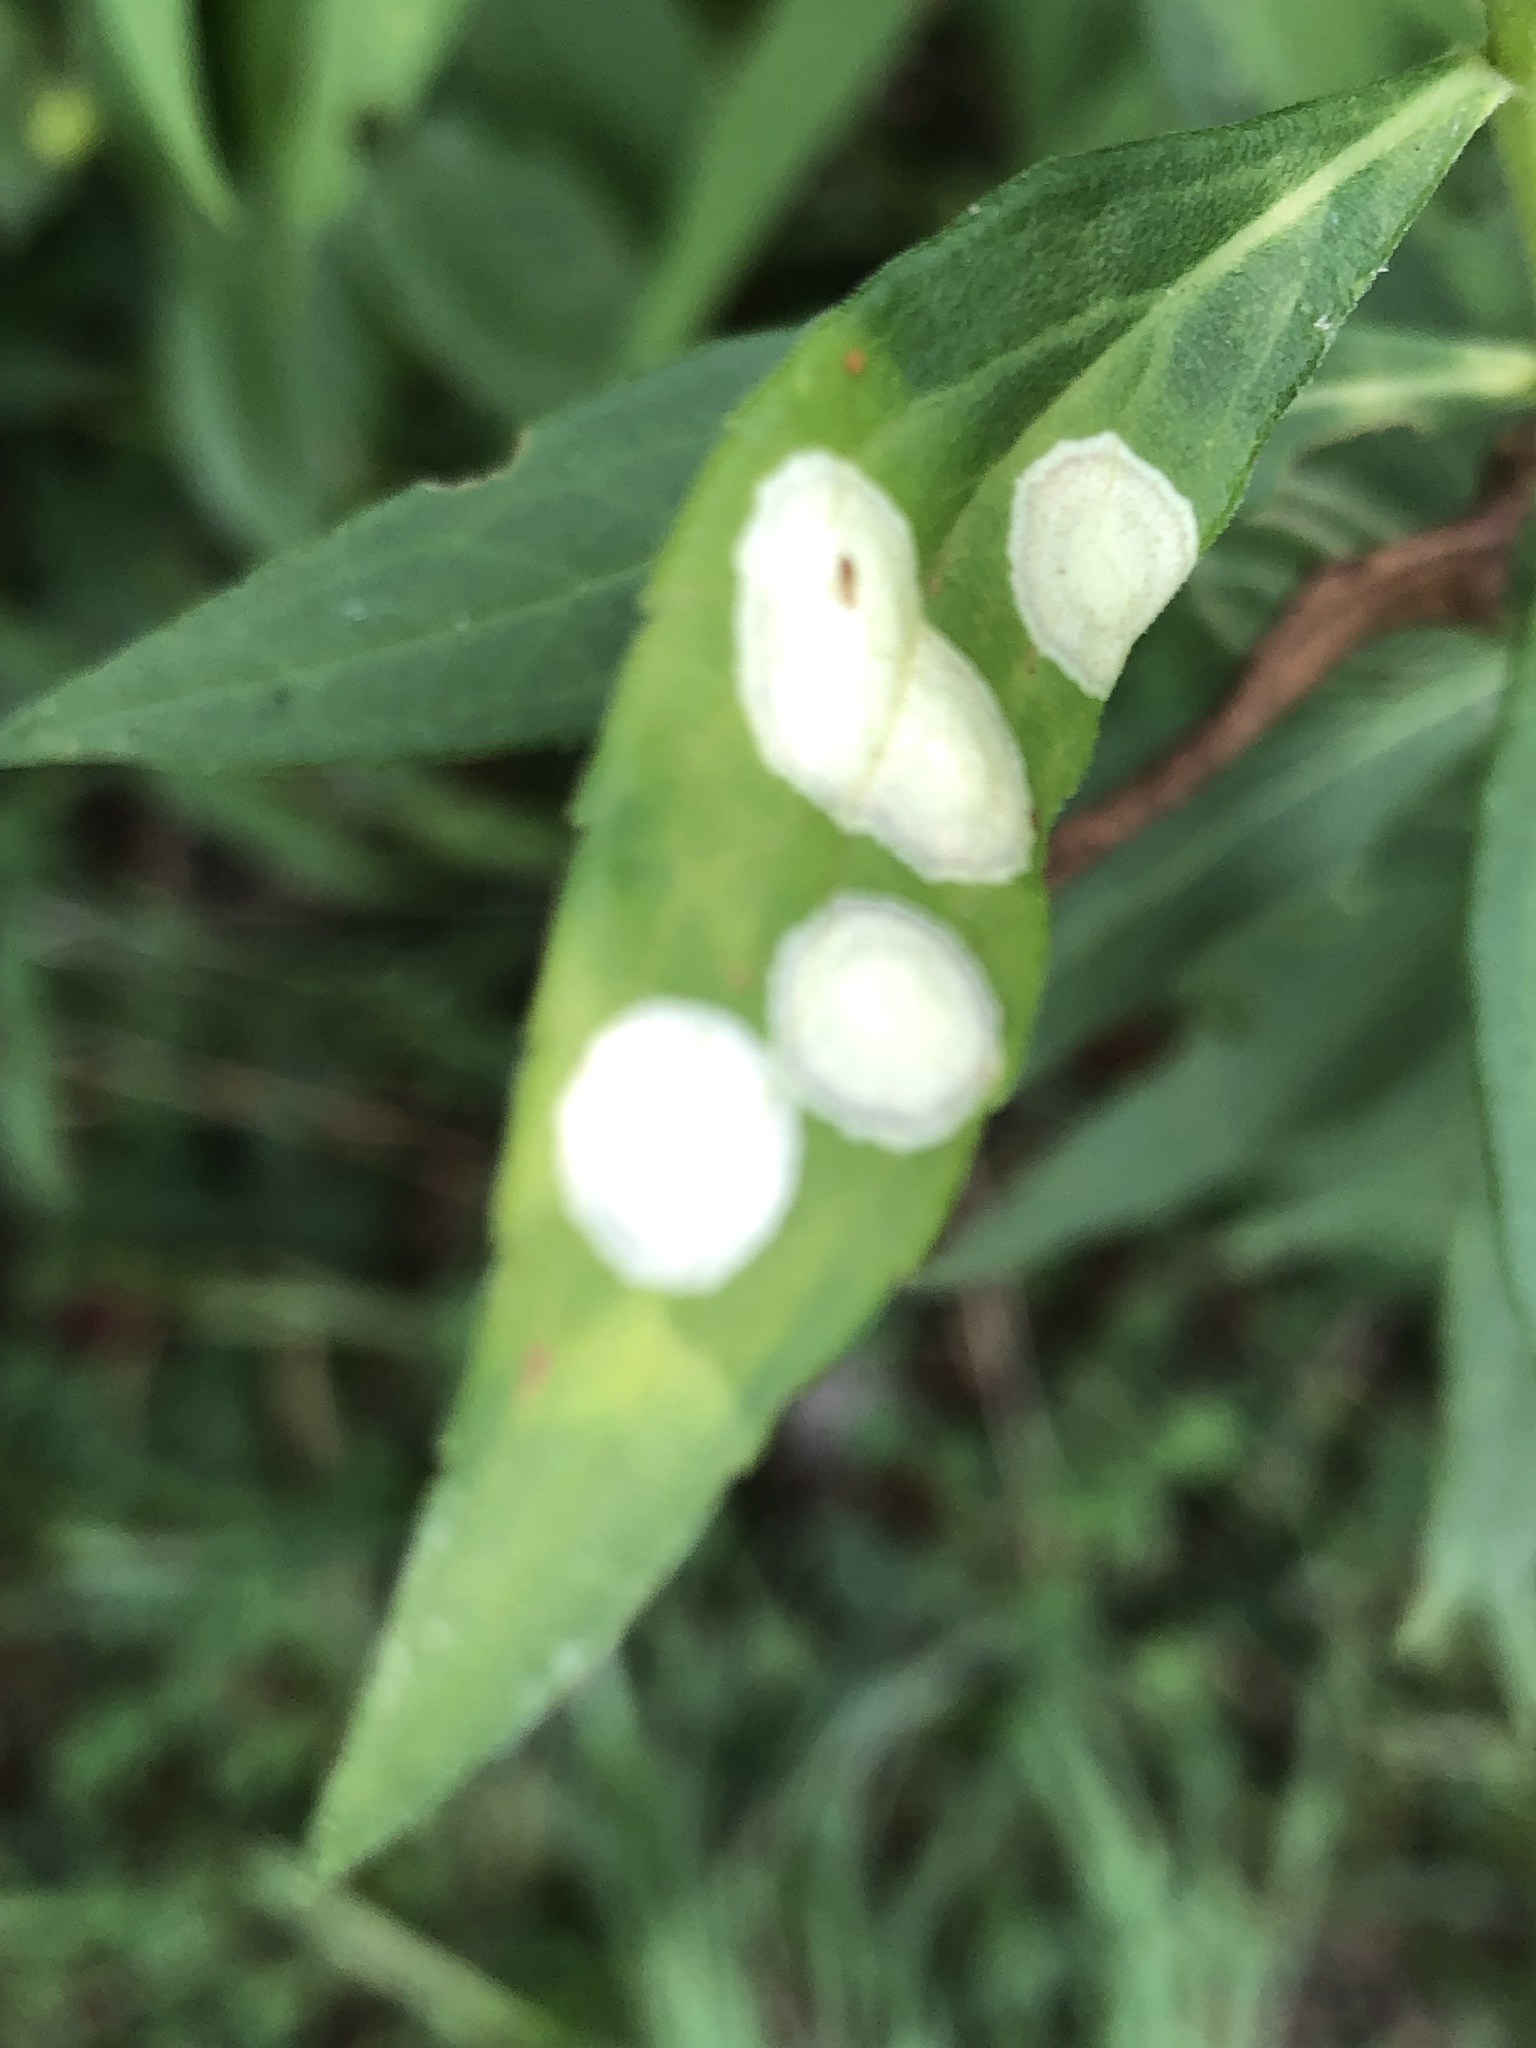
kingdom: Animalia
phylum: Arthropoda
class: Insecta
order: Diptera
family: Cecidomyiidae
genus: Asteromyia
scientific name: Asteromyia carbonifera
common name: Carbonifera goldenrod gall midge
